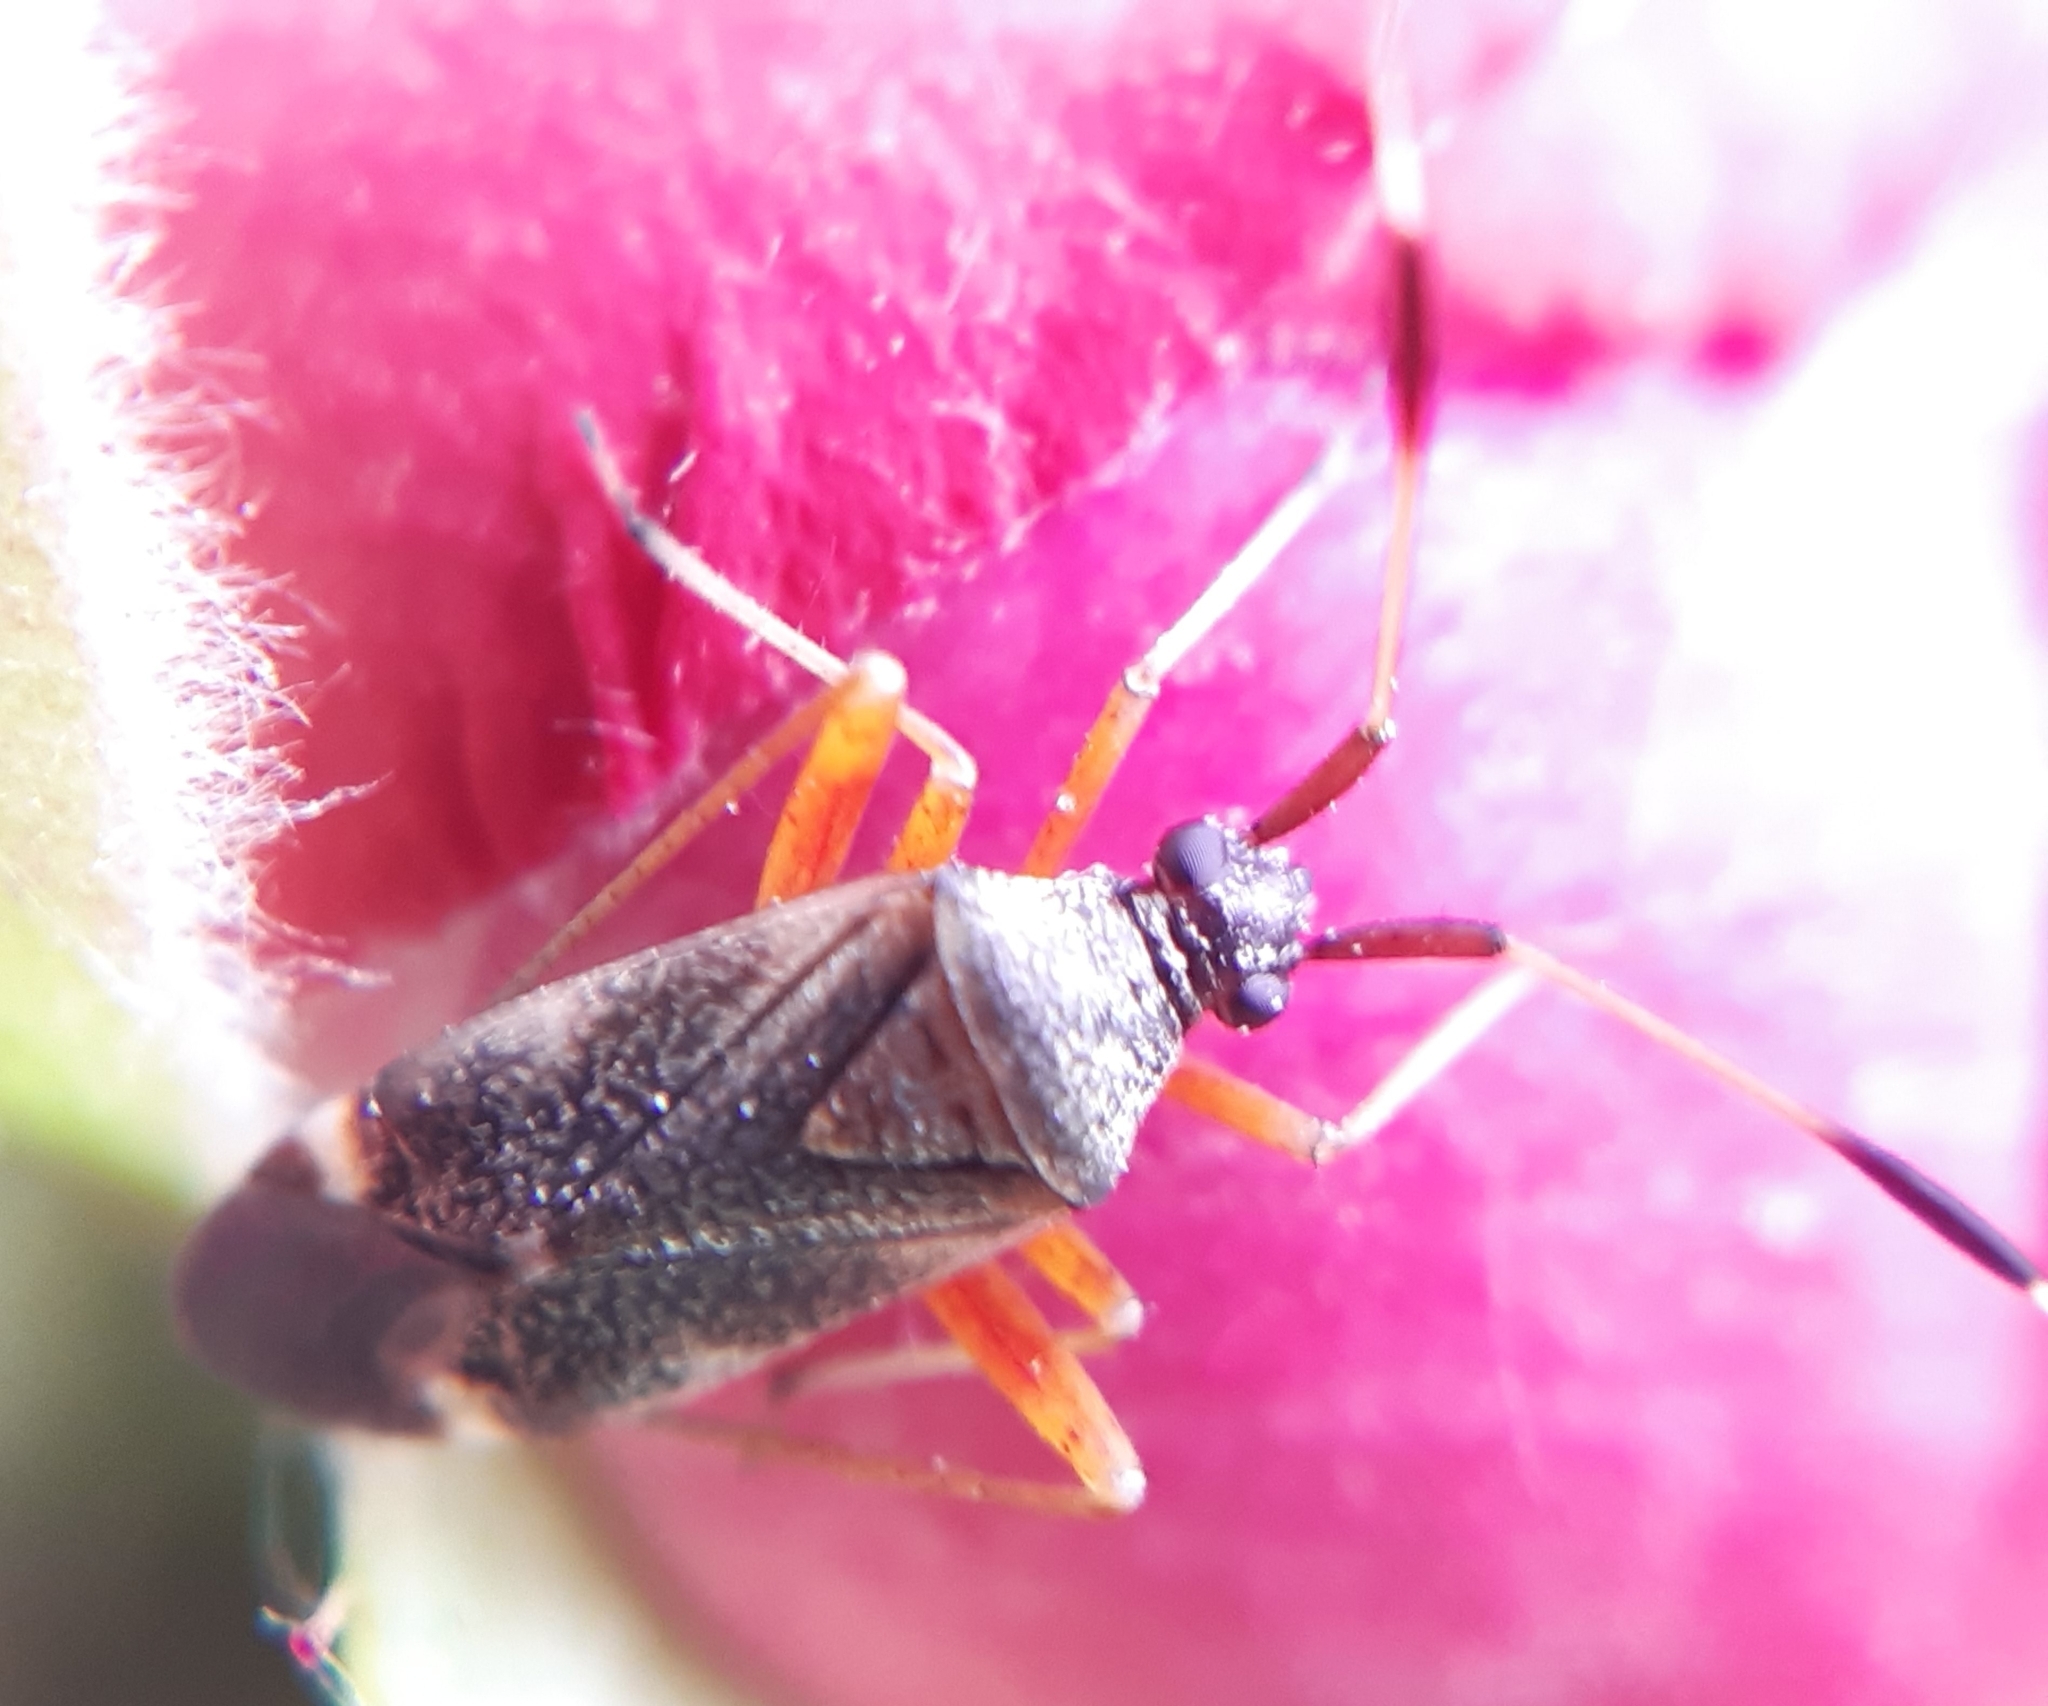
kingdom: Animalia
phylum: Arthropoda
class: Insecta
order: Hemiptera
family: Miridae
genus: Closterotomus
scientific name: Closterotomus biclavatus
